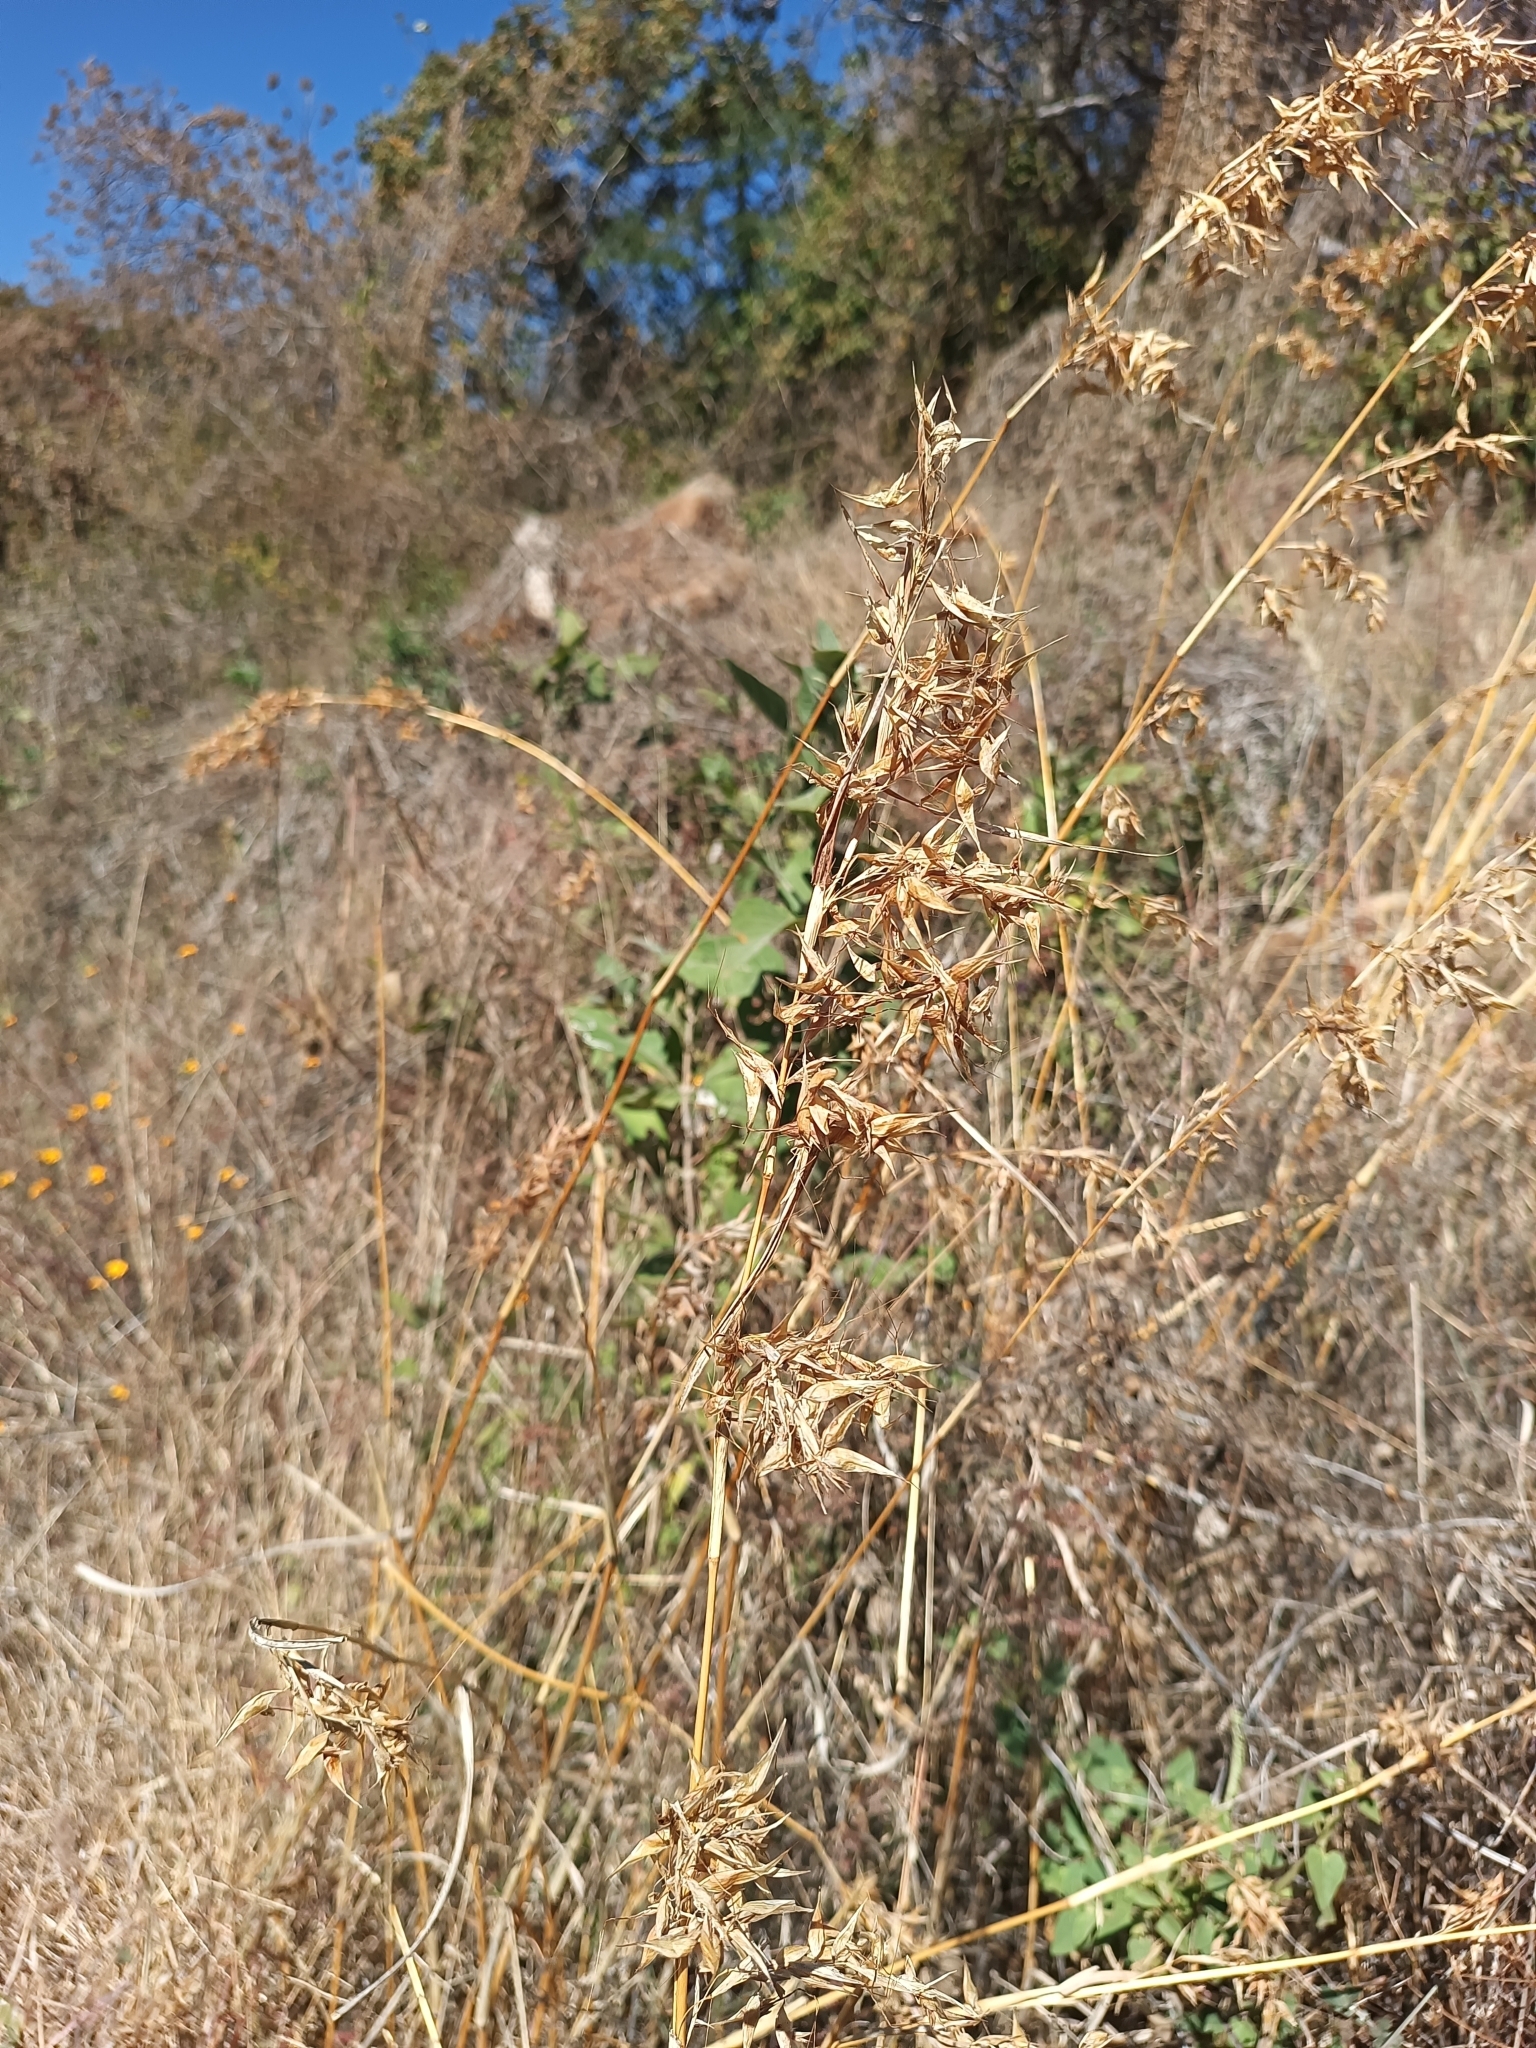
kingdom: Plantae
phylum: Tracheophyta
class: Liliopsida
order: Poales
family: Poaceae
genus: Hyparrhenia
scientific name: Hyparrhenia variabilis
